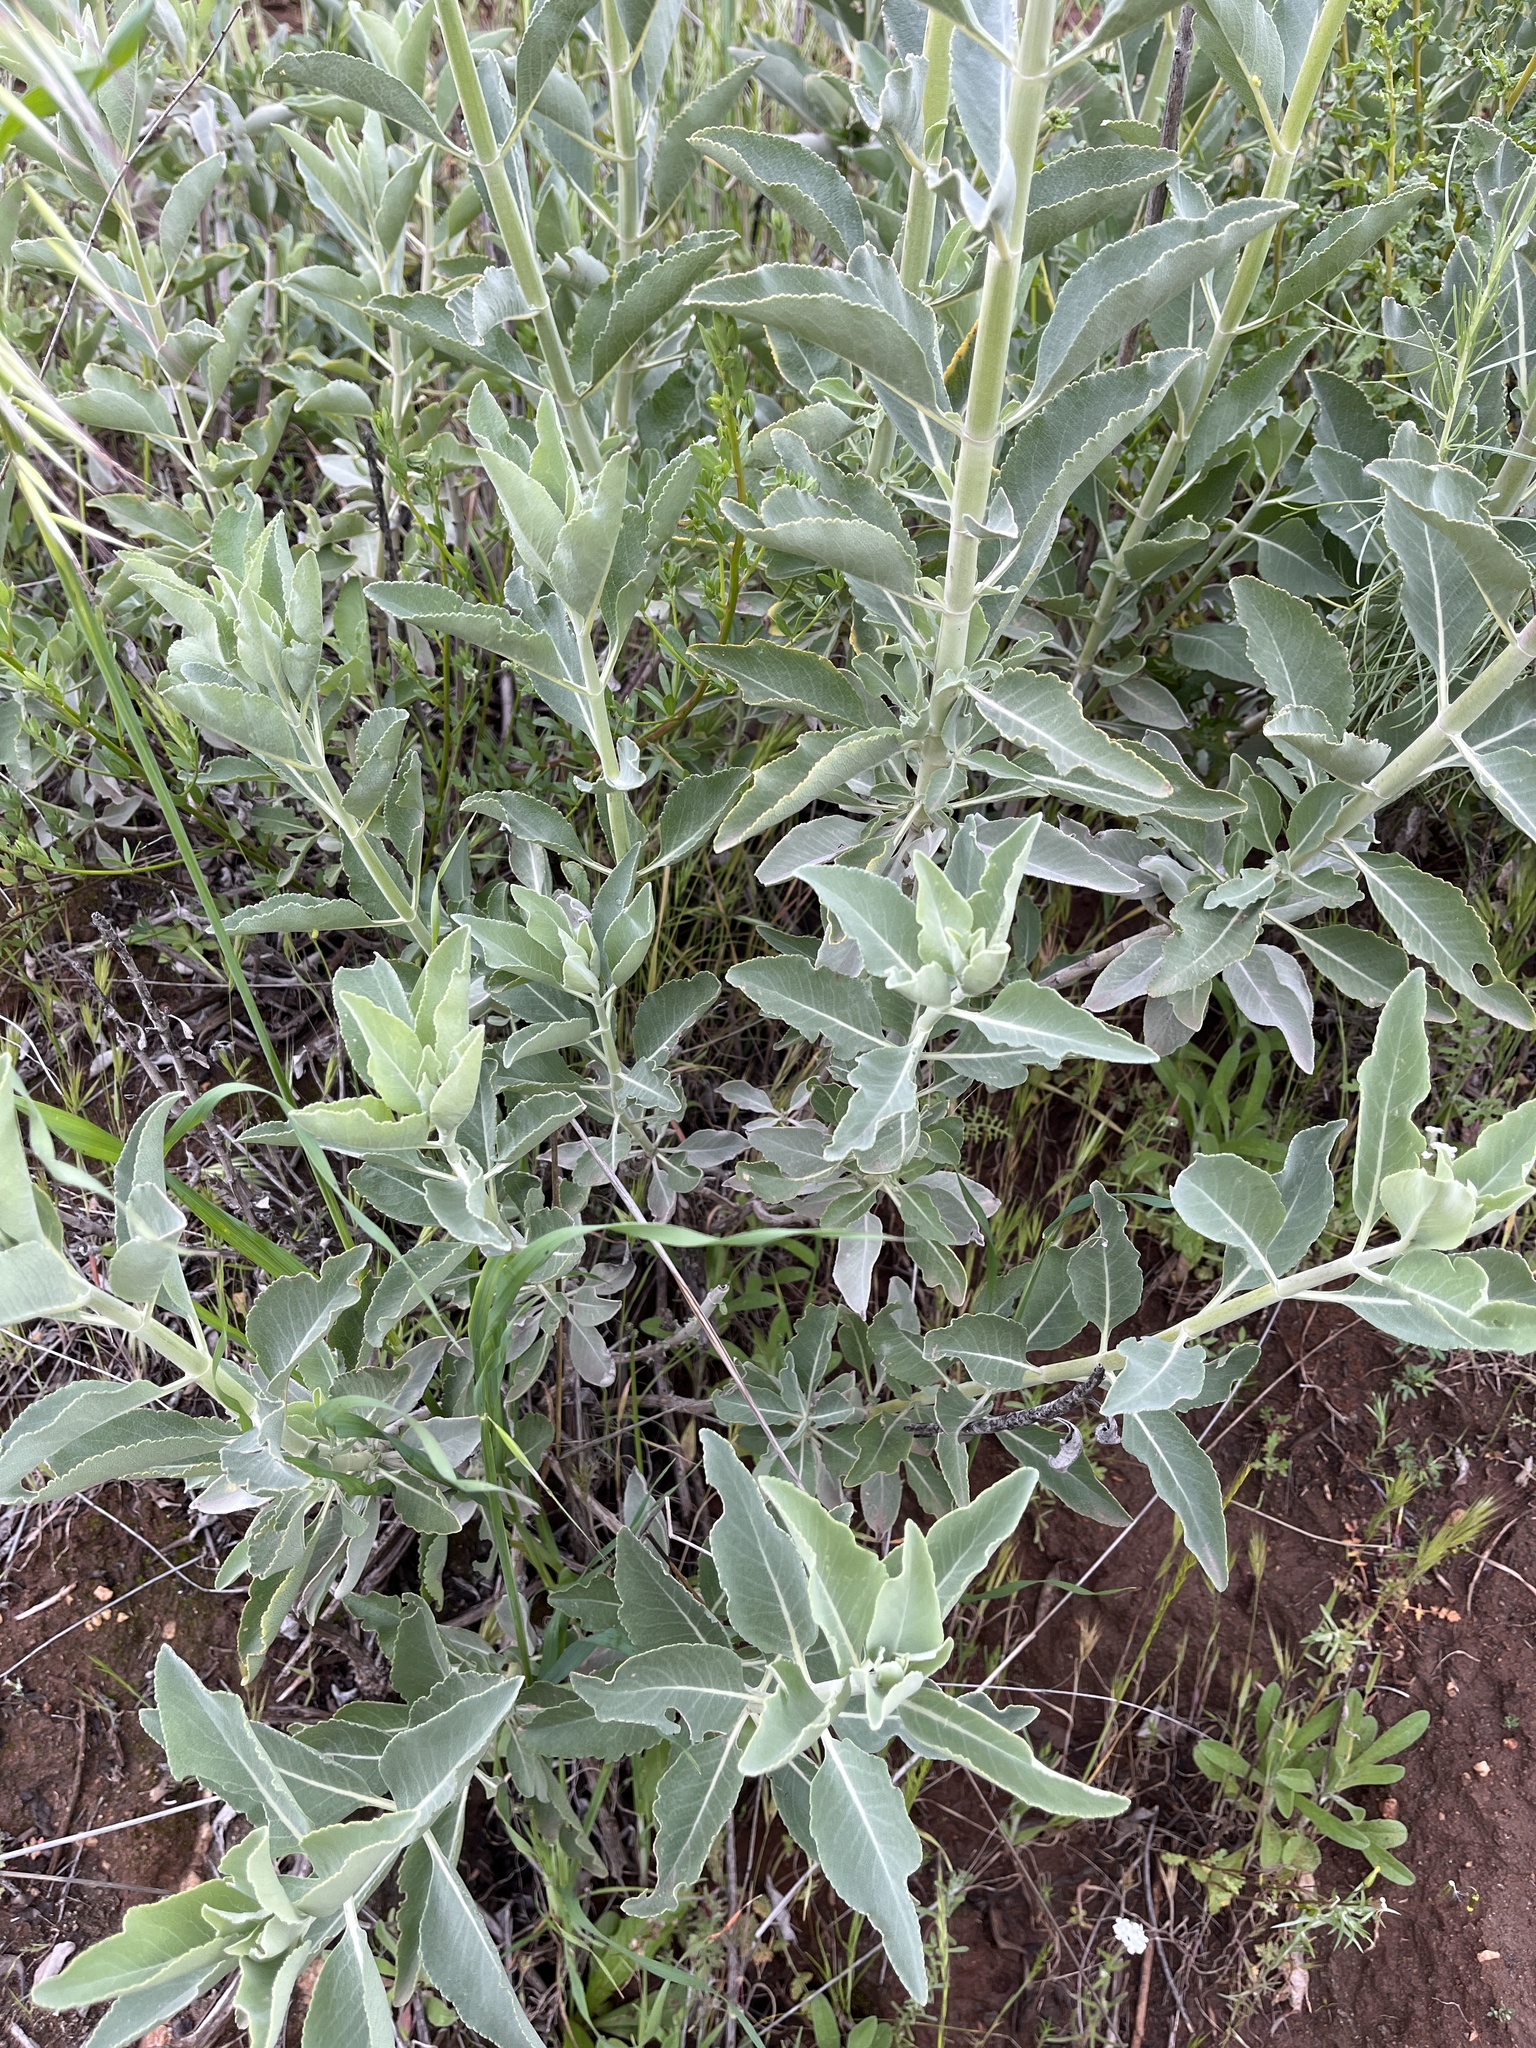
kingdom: Plantae
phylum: Tracheophyta
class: Magnoliopsida
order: Lamiales
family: Lamiaceae
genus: Salvia
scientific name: Salvia apiana
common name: White sage
